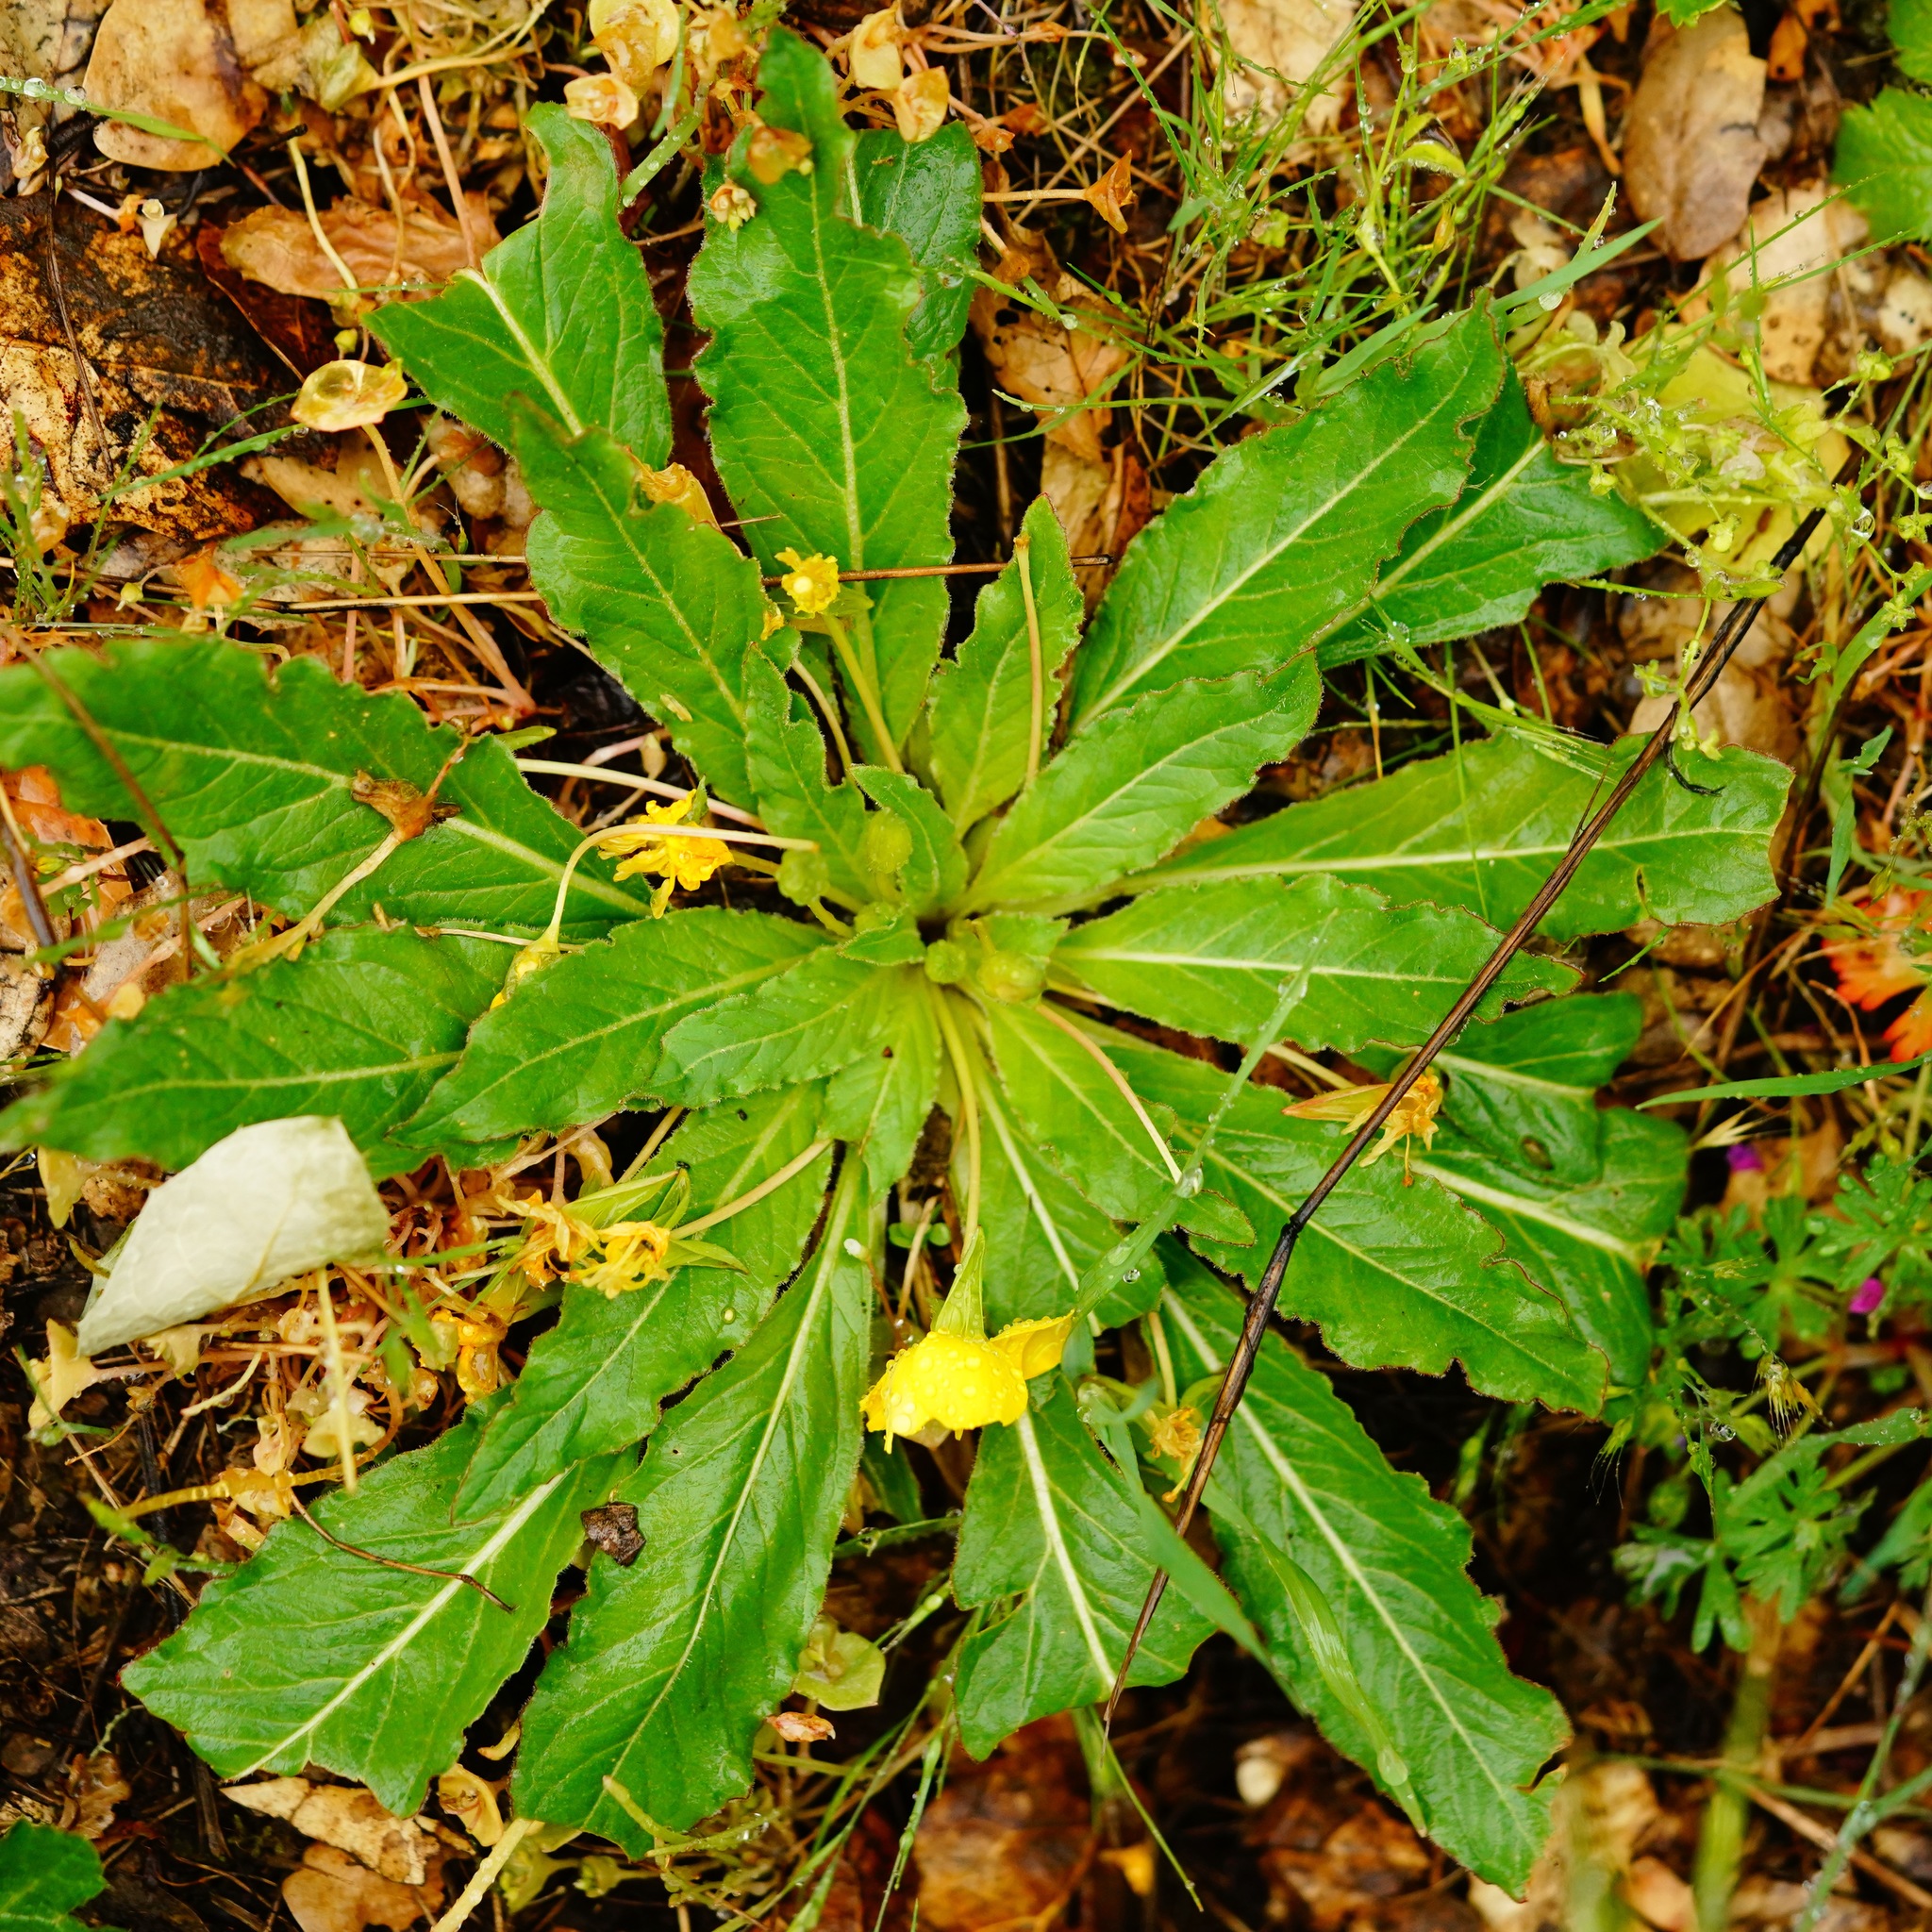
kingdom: Plantae
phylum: Tracheophyta
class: Magnoliopsida
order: Myrtales
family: Onagraceae
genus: Taraxia
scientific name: Taraxia ovata
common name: Goldeneggs
